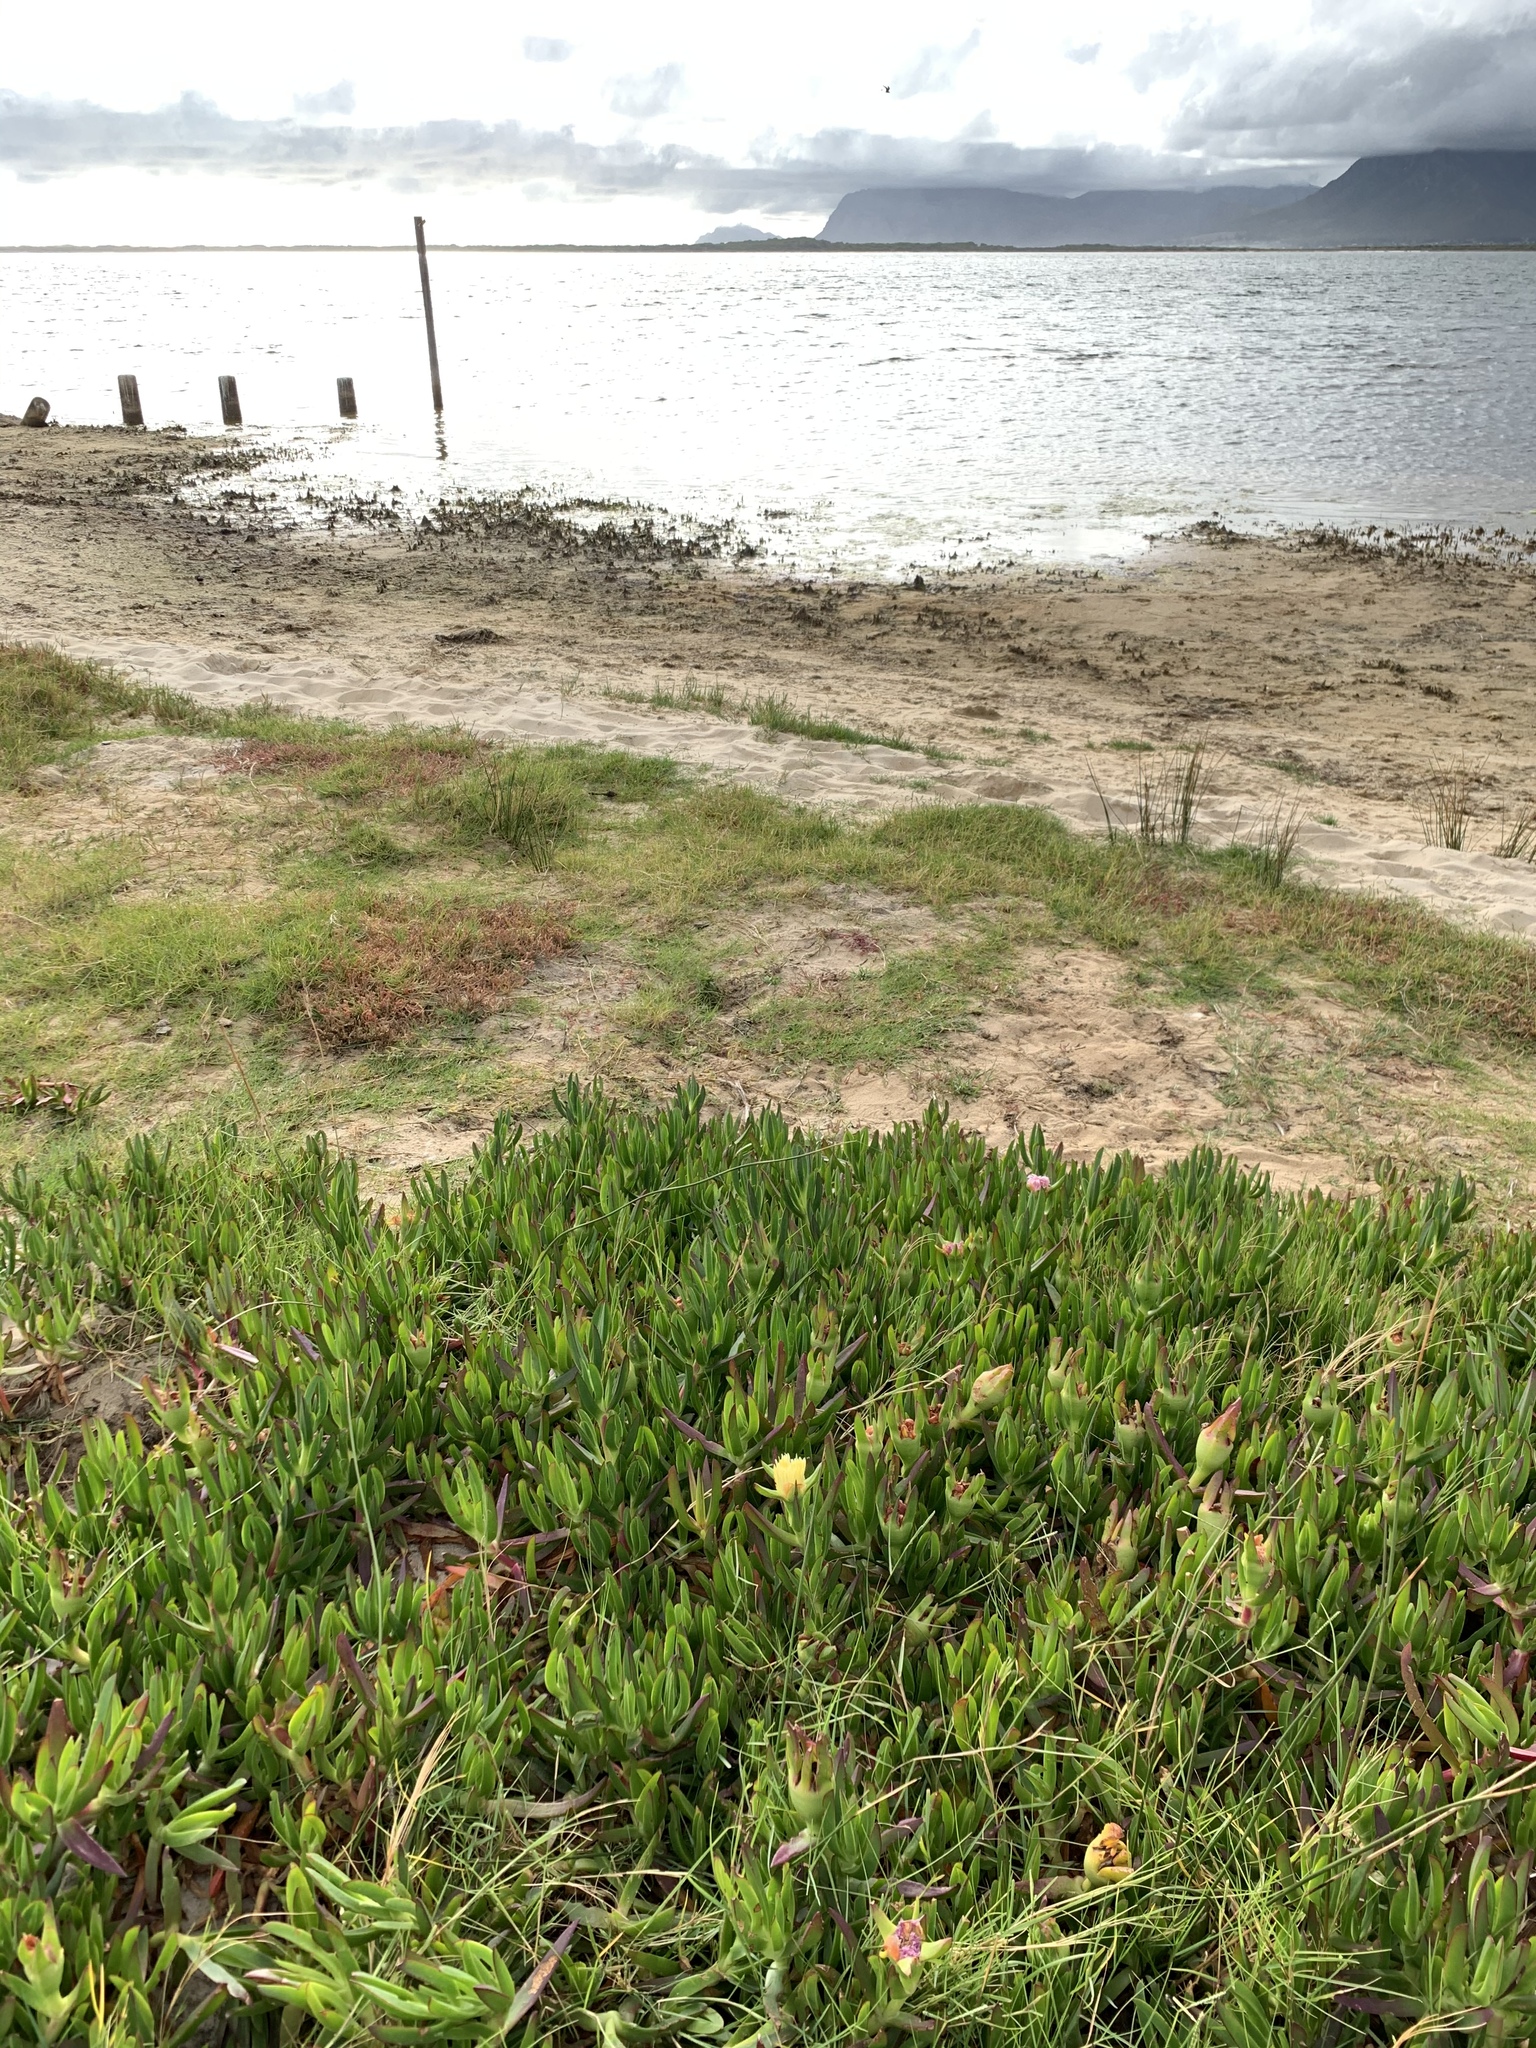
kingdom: Plantae
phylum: Tracheophyta
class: Magnoliopsida
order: Caryophyllales
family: Aizoaceae
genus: Carpobrotus
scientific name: Carpobrotus edulis
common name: Hottentot-fig
